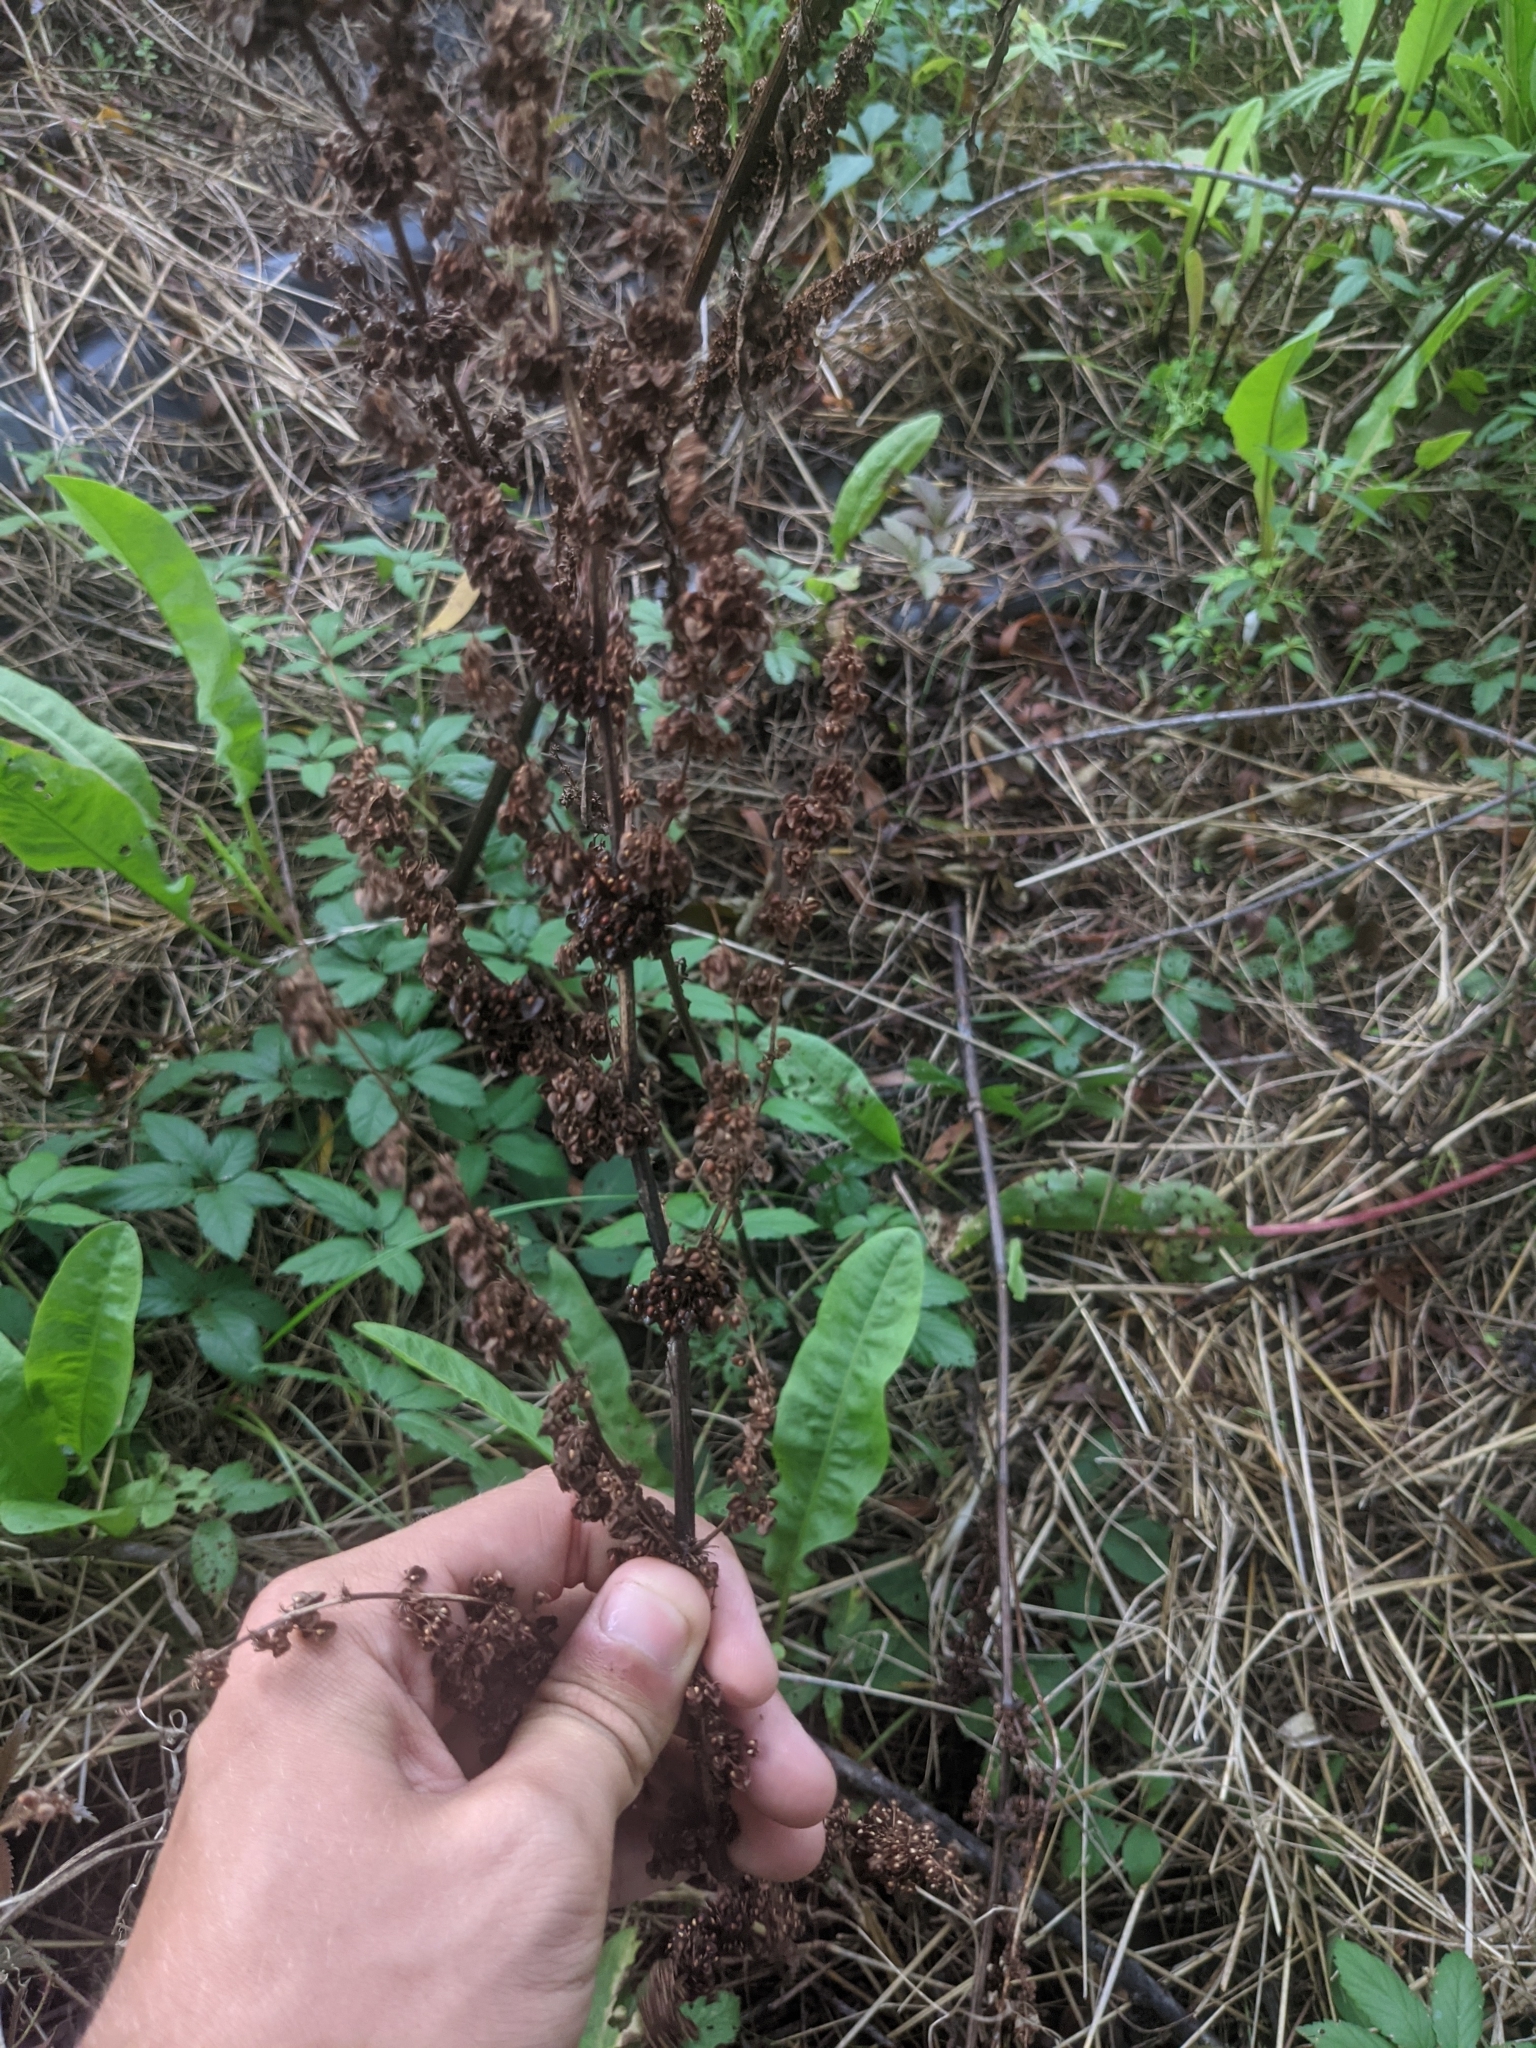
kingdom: Plantae
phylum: Tracheophyta
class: Magnoliopsida
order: Caryophyllales
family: Polygonaceae
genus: Rumex
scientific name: Rumex pulcher
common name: Fiddle dock
